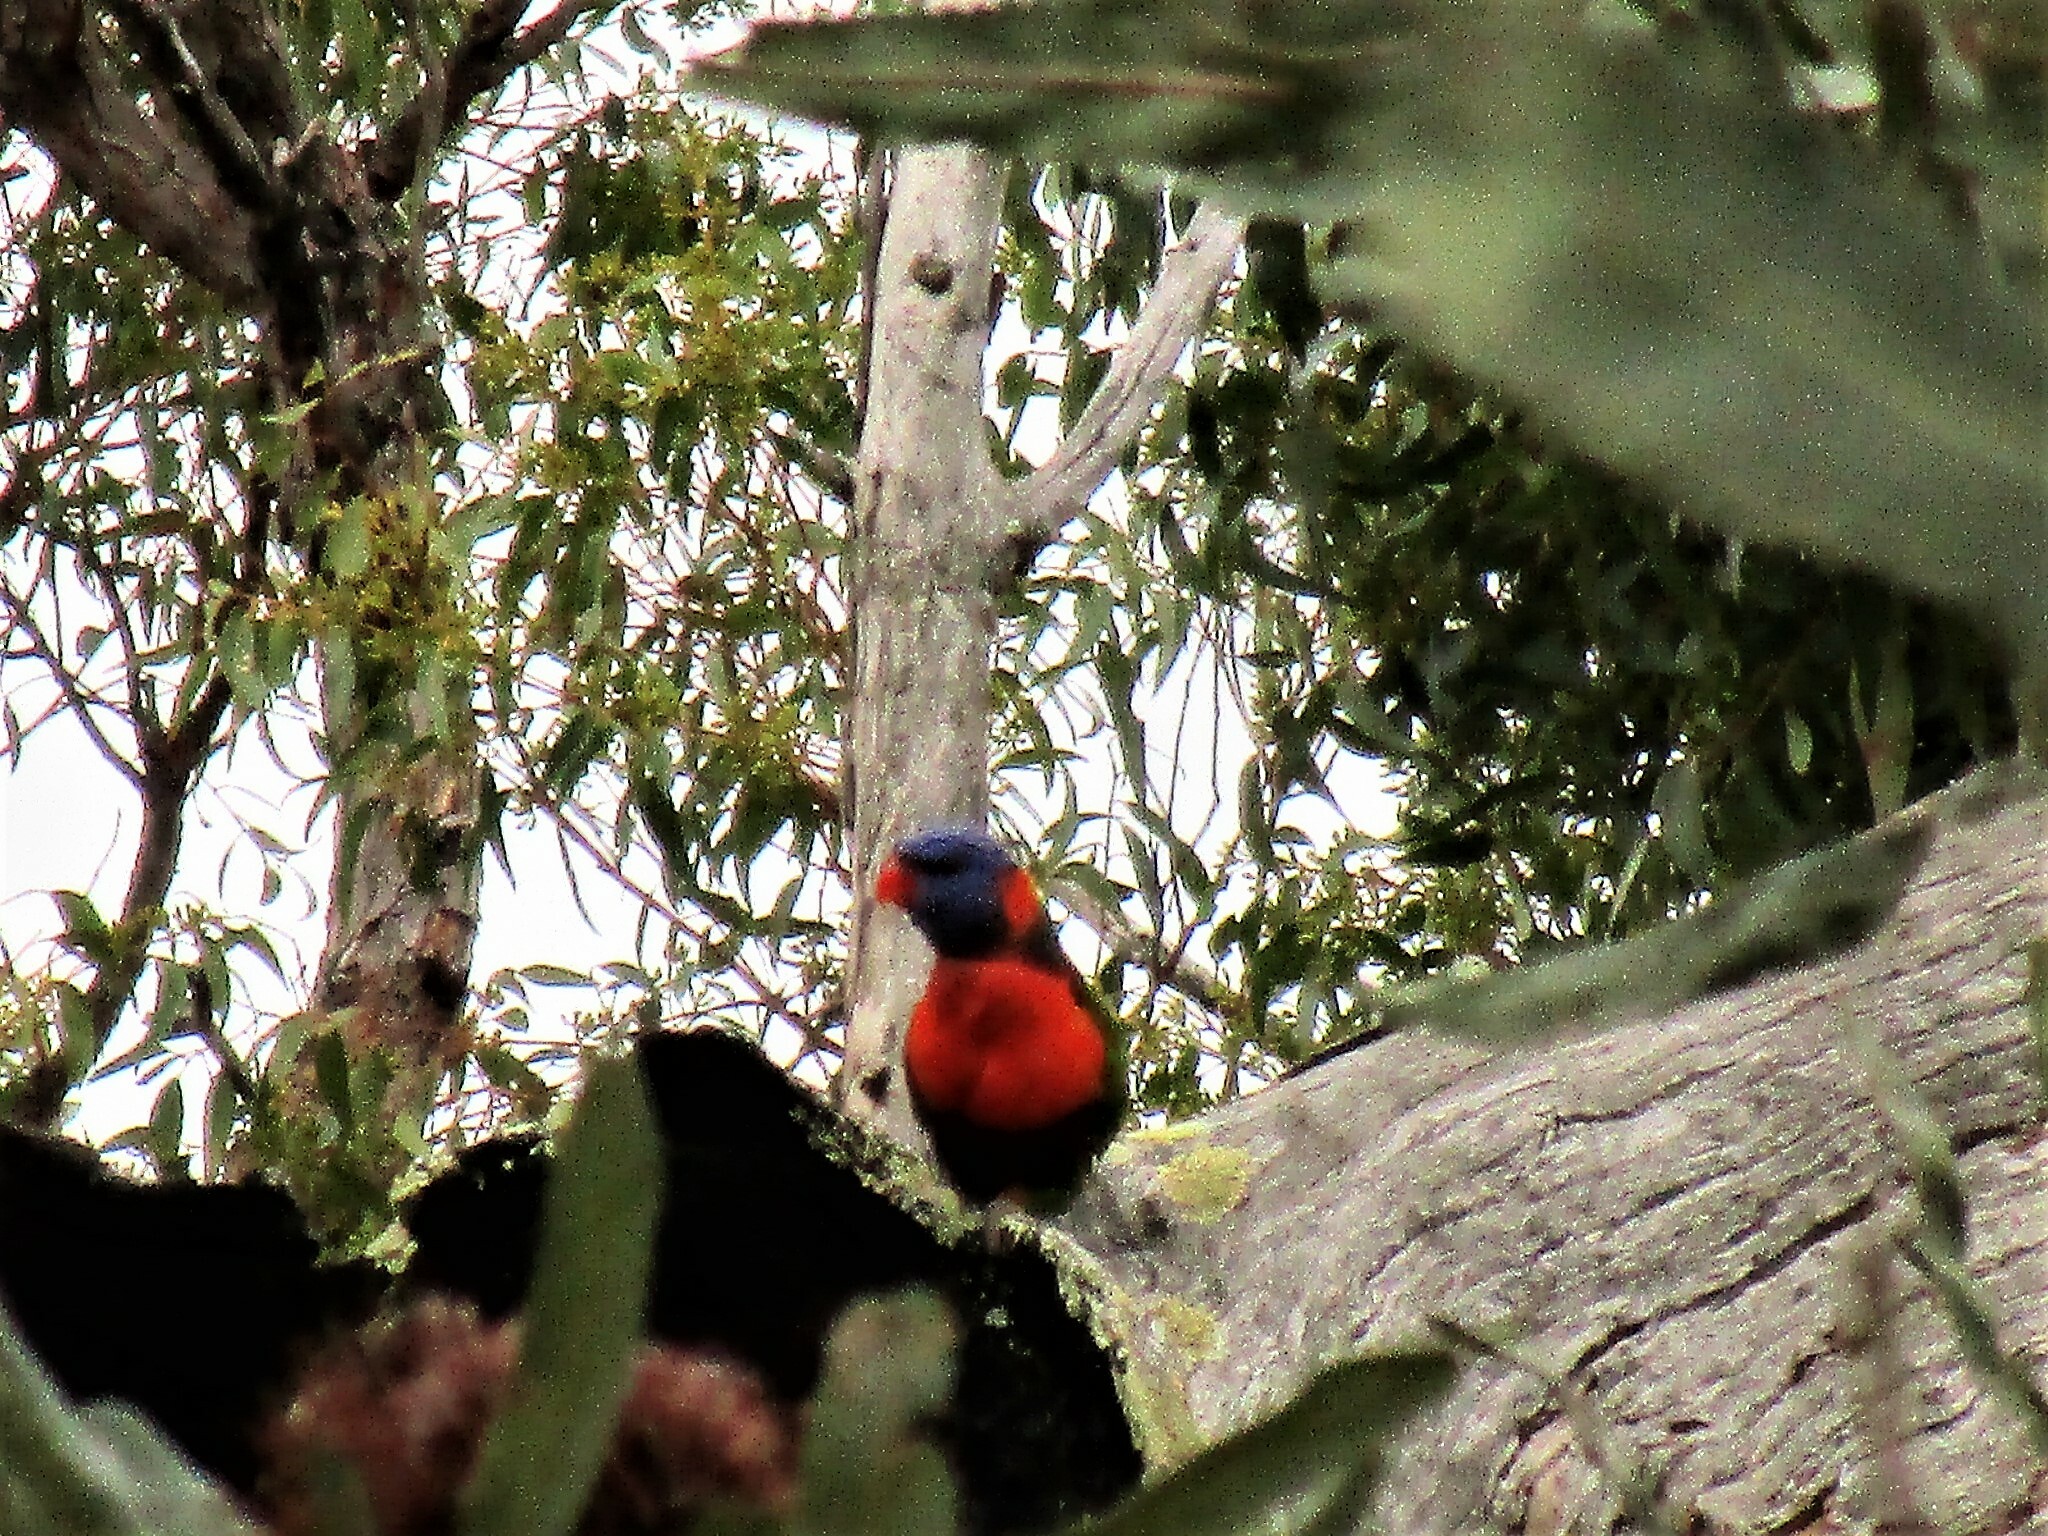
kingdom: Animalia
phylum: Chordata
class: Aves
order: Psittaciformes
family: Psittacidae
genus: Trichoglossus
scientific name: Trichoglossus rubritorquis
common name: Red-collared lorikeet
